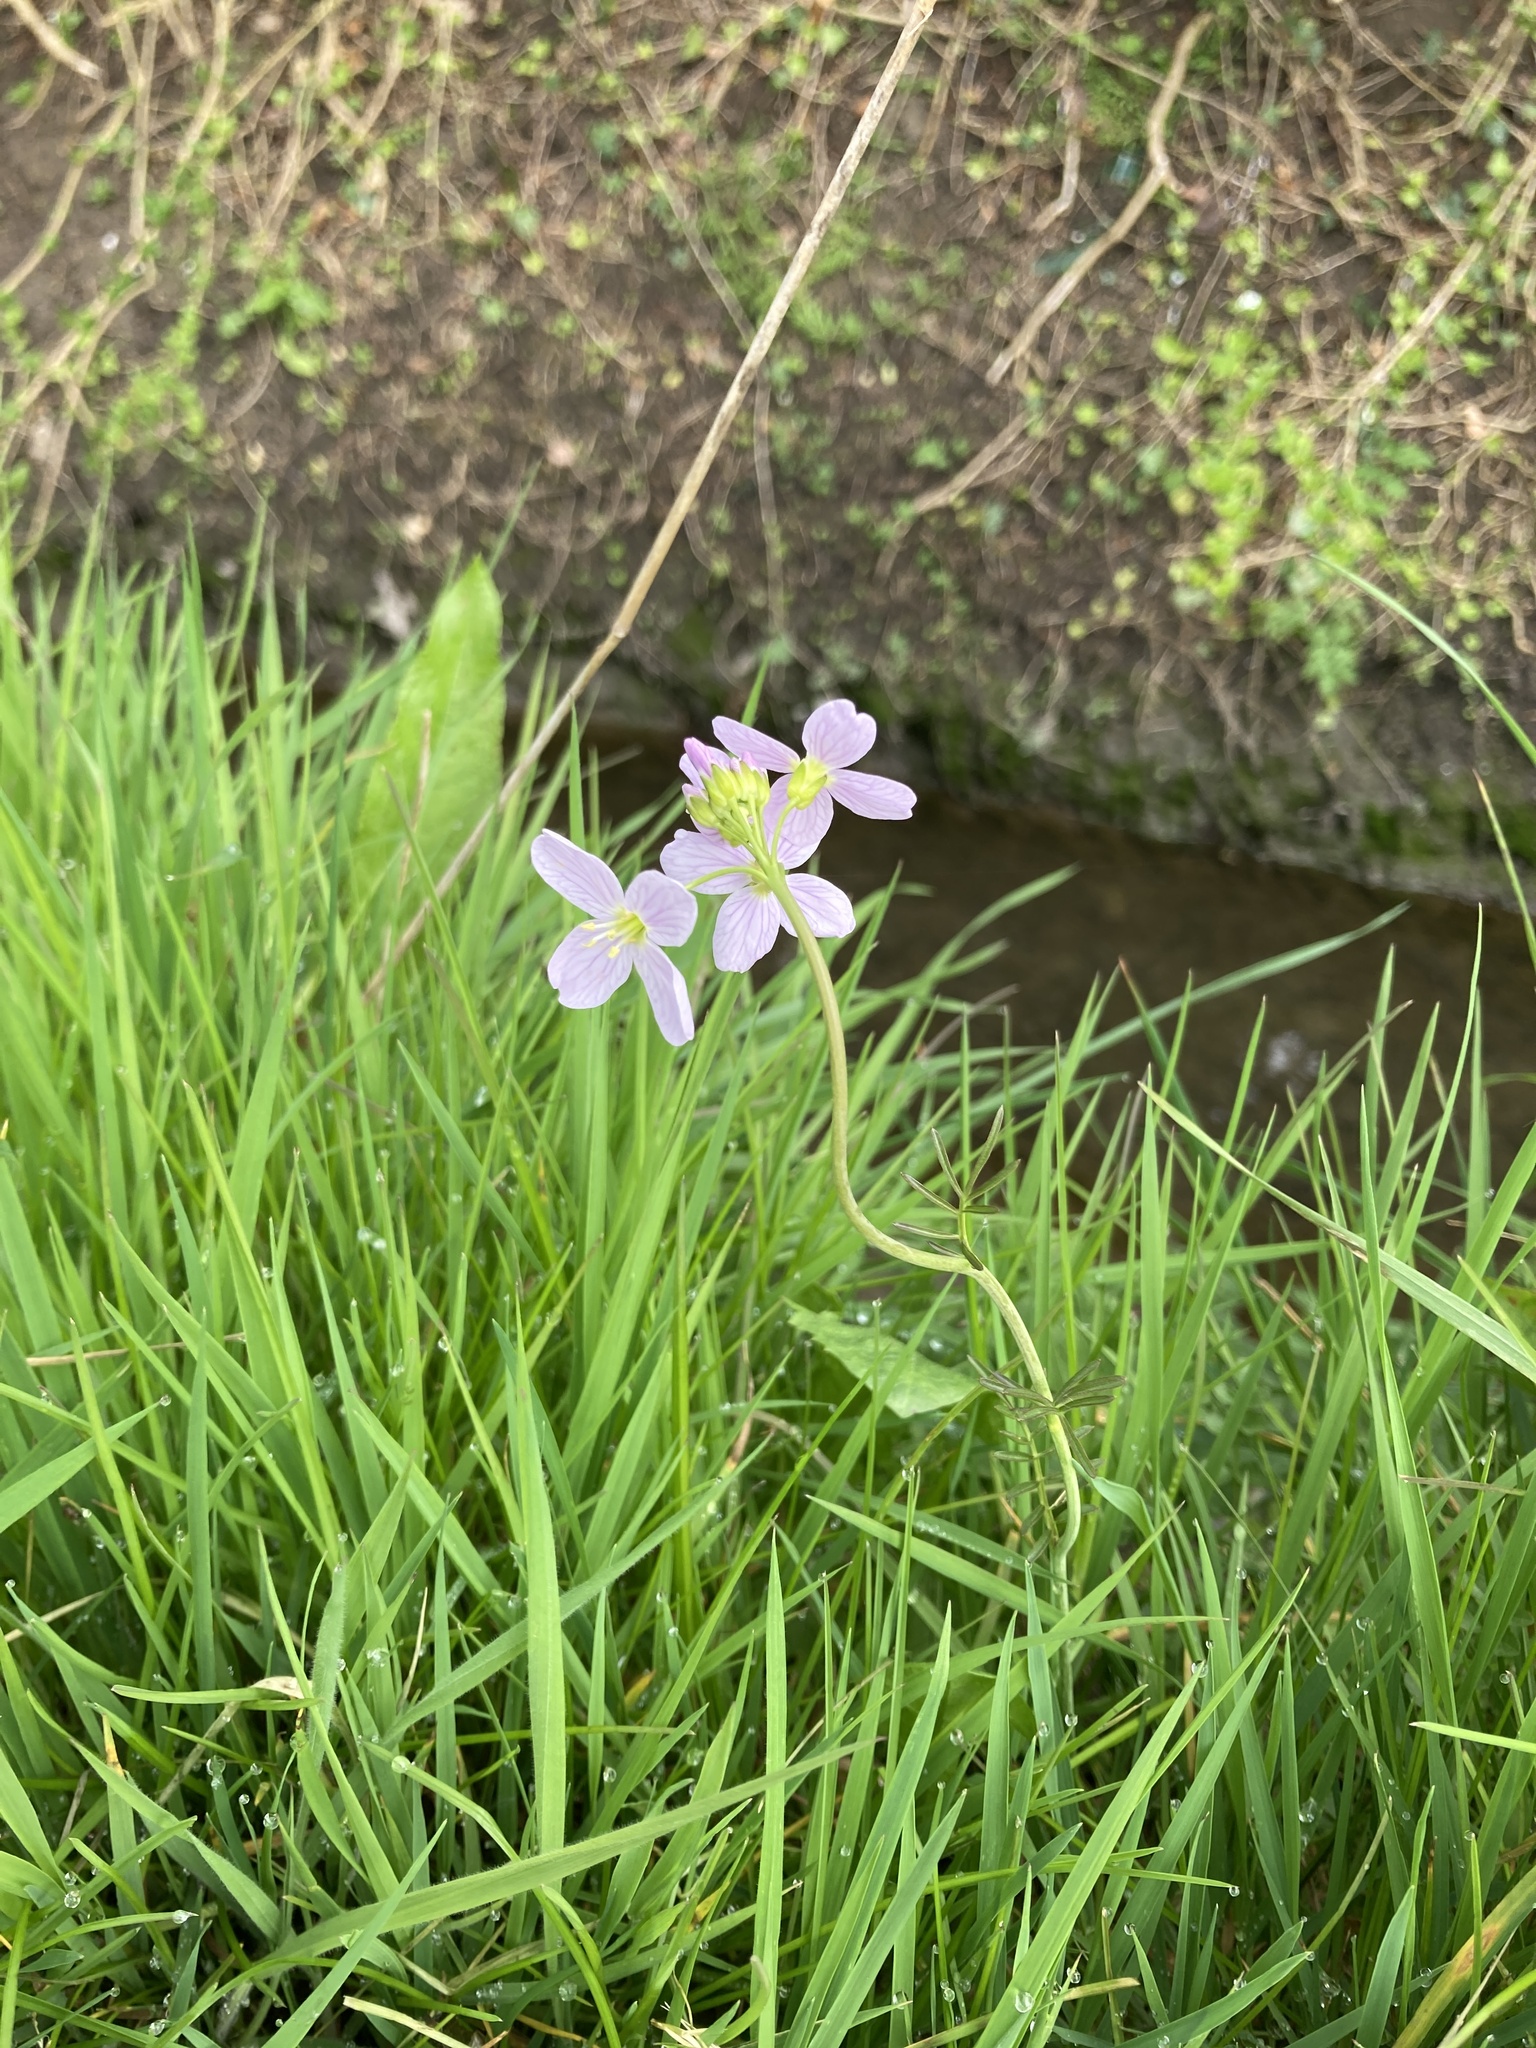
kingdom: Plantae
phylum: Tracheophyta
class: Magnoliopsida
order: Brassicales
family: Brassicaceae
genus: Cardamine
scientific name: Cardamine pratensis
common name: Cuckoo flower
